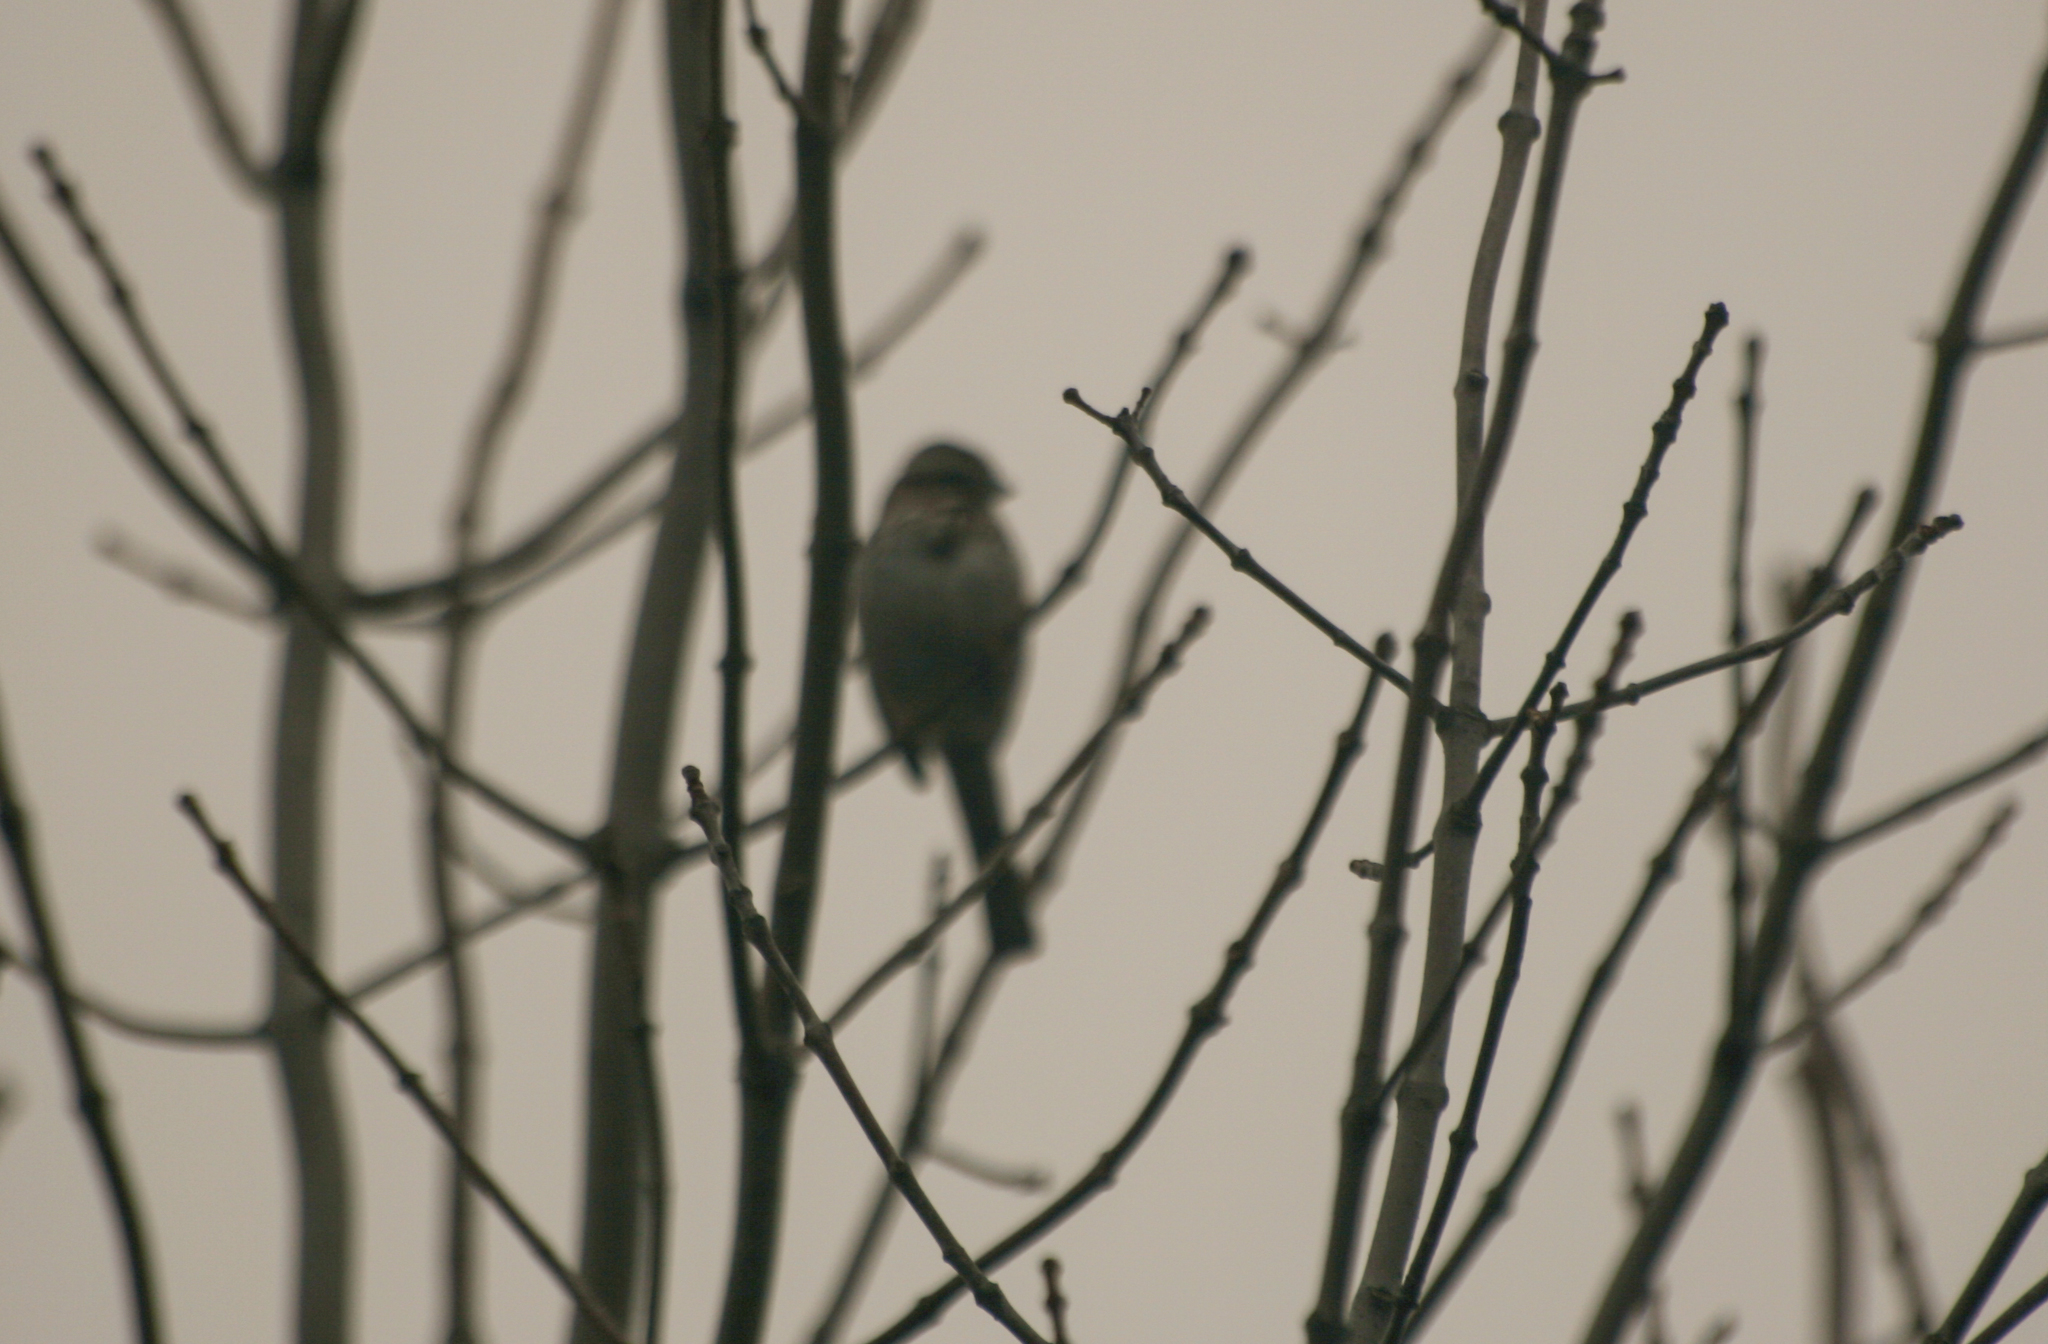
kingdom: Animalia
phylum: Chordata
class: Aves
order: Passeriformes
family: Passerellidae
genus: Melospiza
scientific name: Melospiza melodia
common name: Song sparrow
